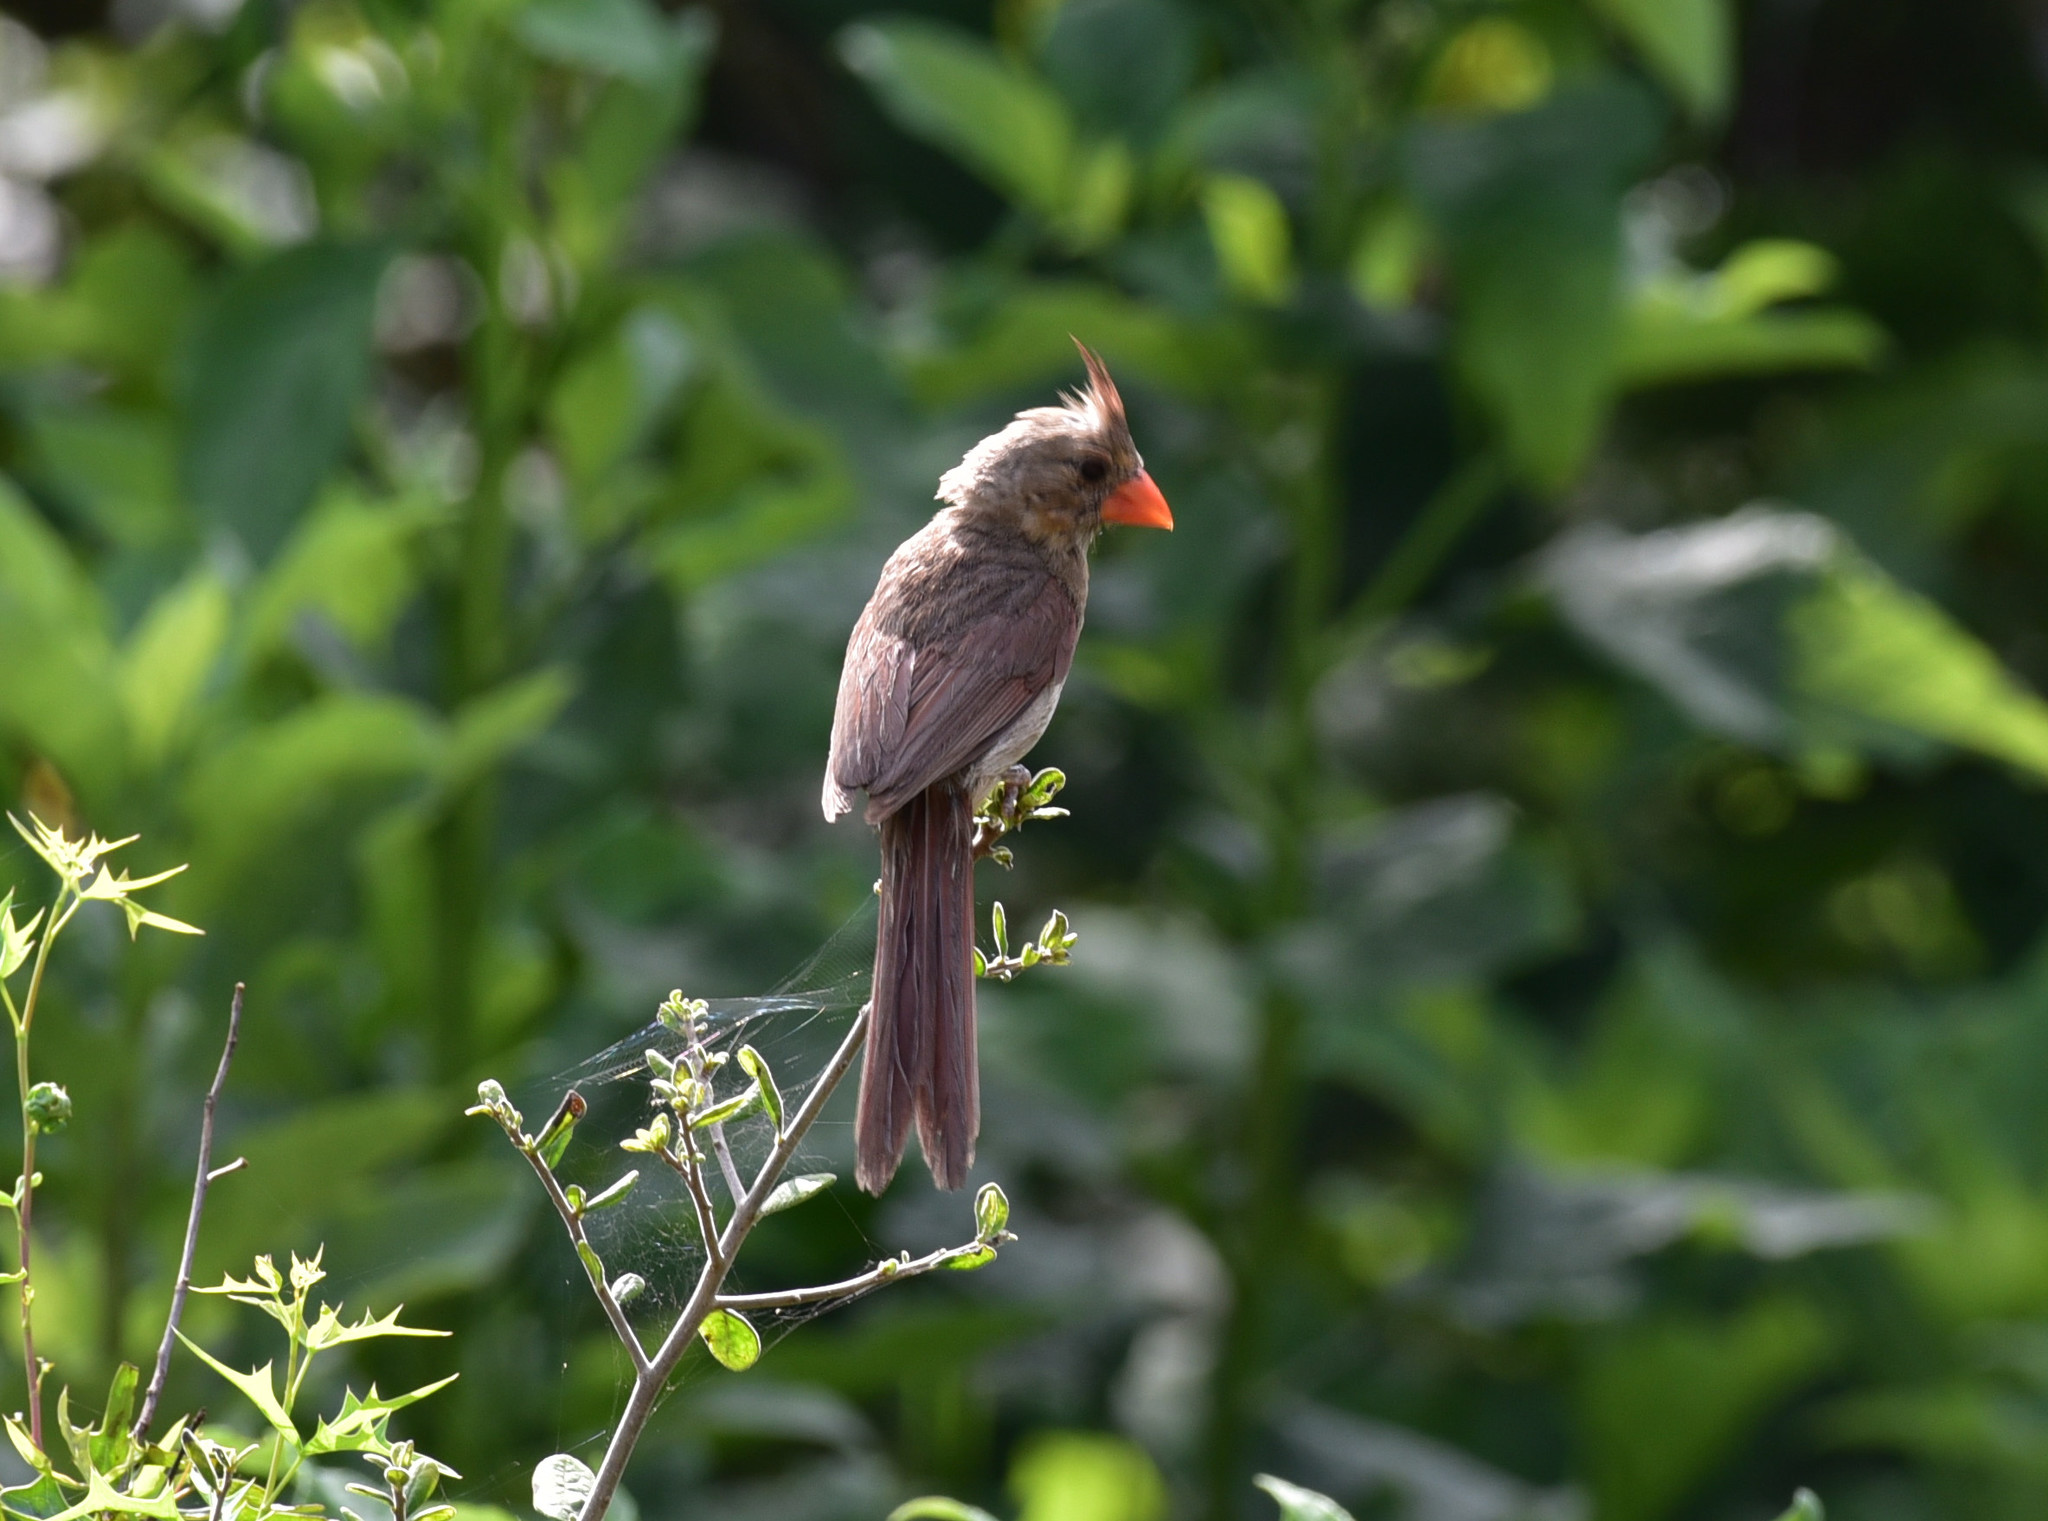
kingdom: Animalia
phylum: Chordata
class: Aves
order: Passeriformes
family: Cardinalidae
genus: Cardinalis
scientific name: Cardinalis cardinalis
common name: Northern cardinal
